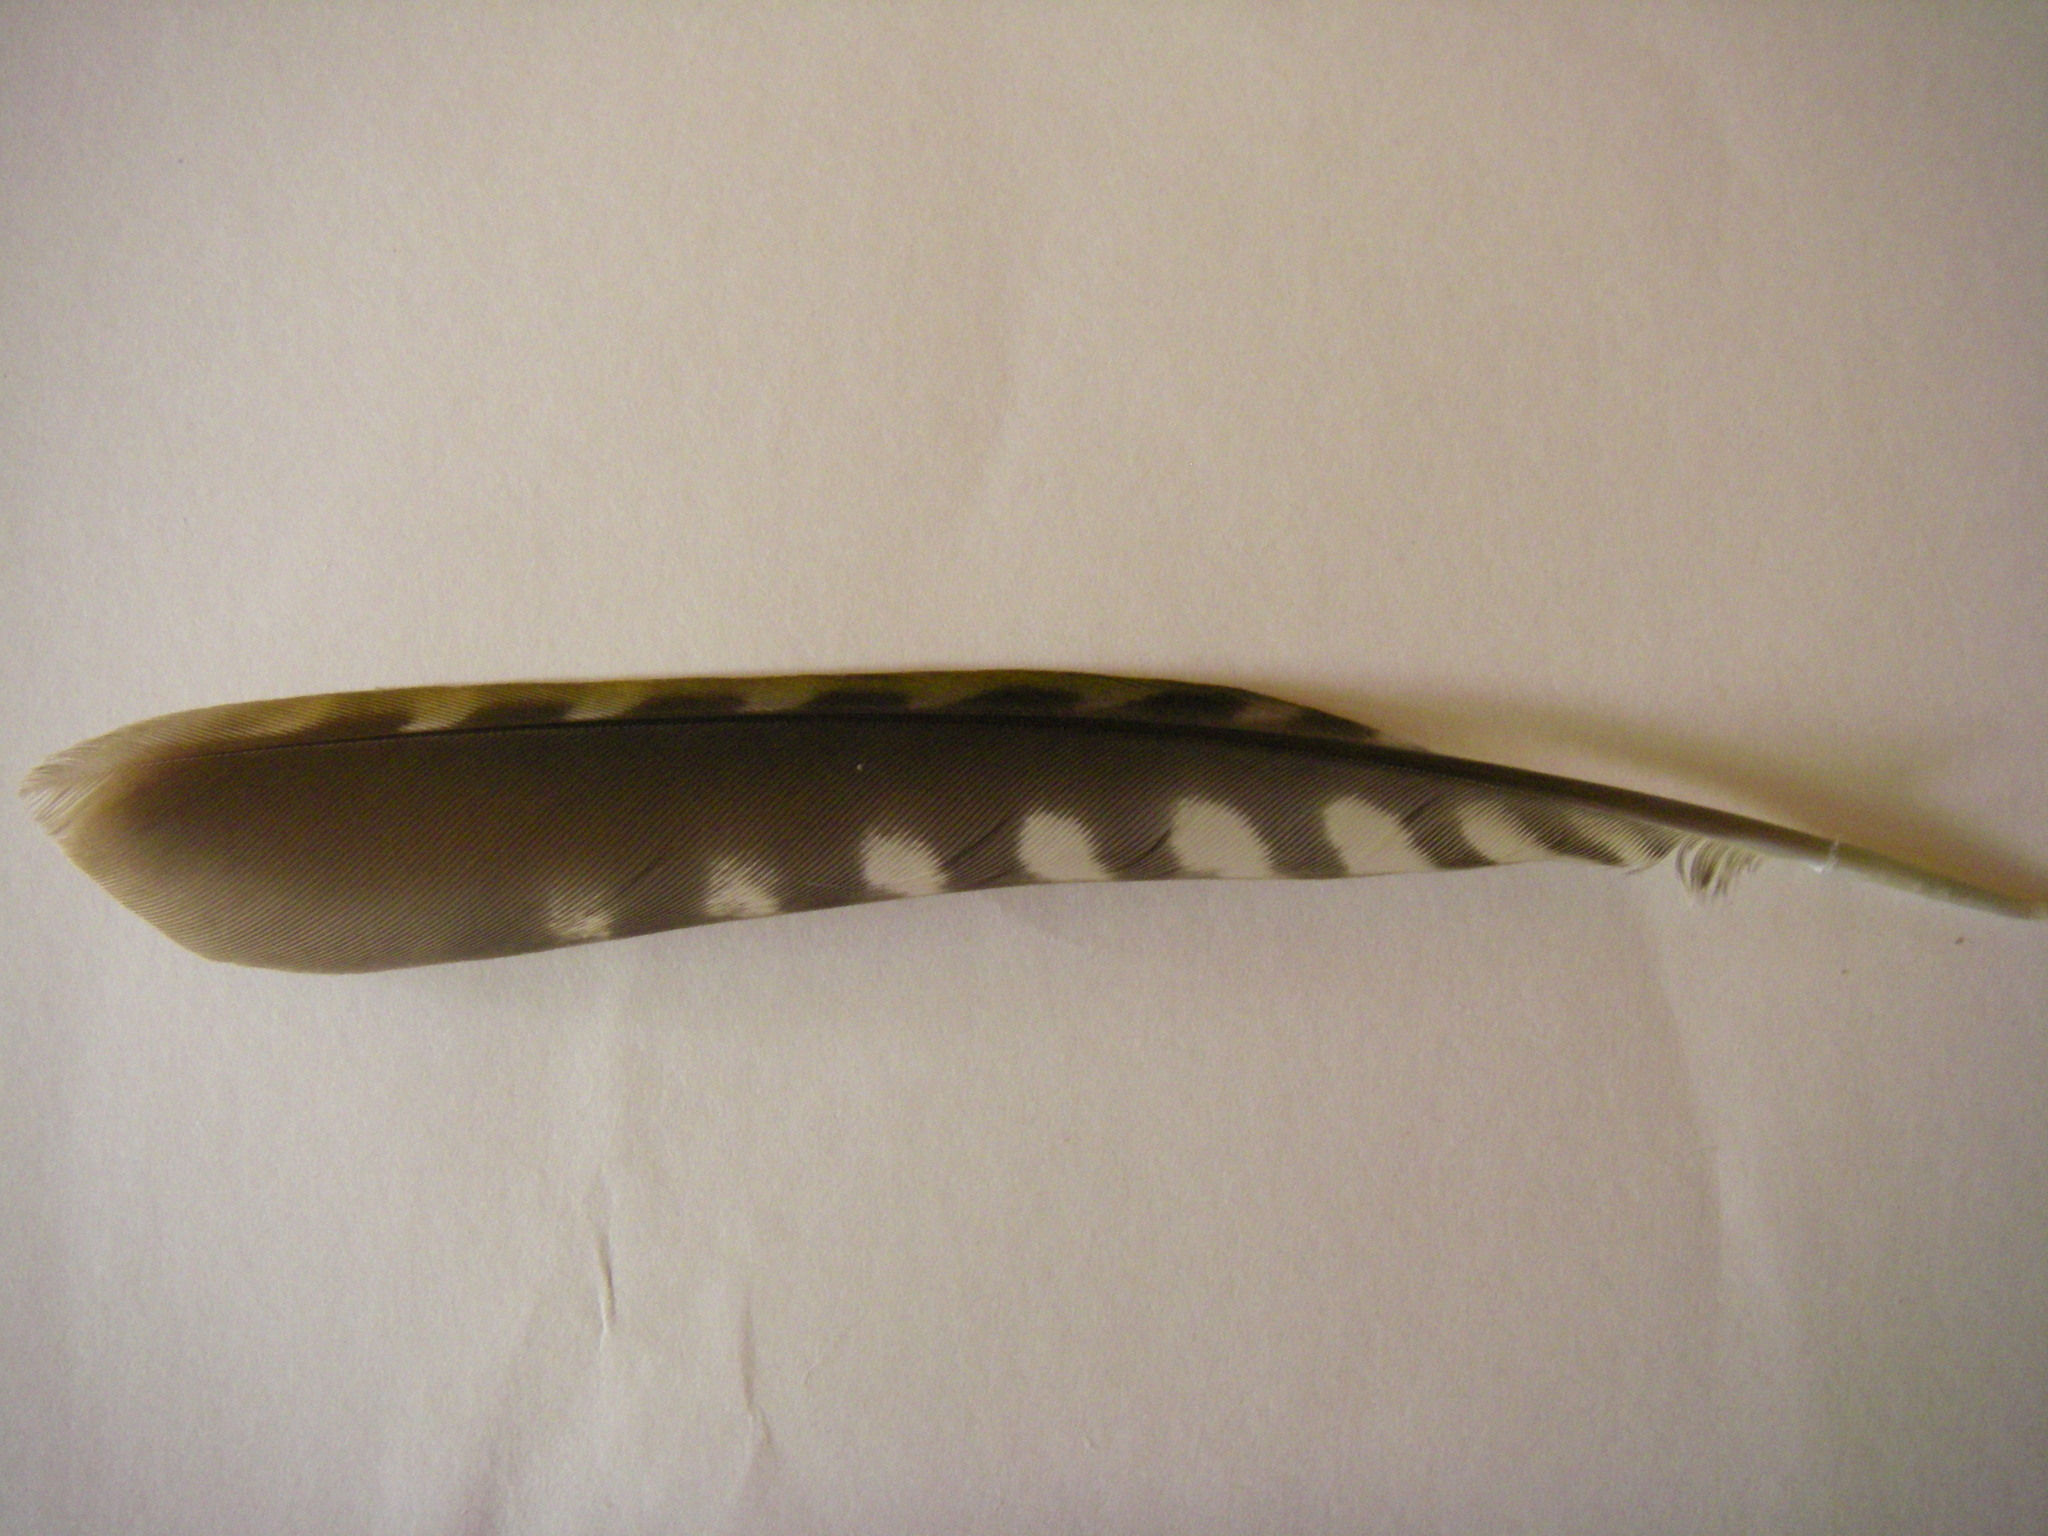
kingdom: Animalia
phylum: Chordata
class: Aves
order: Piciformes
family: Picidae
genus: Picus
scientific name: Picus viridis
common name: European green woodpecker
